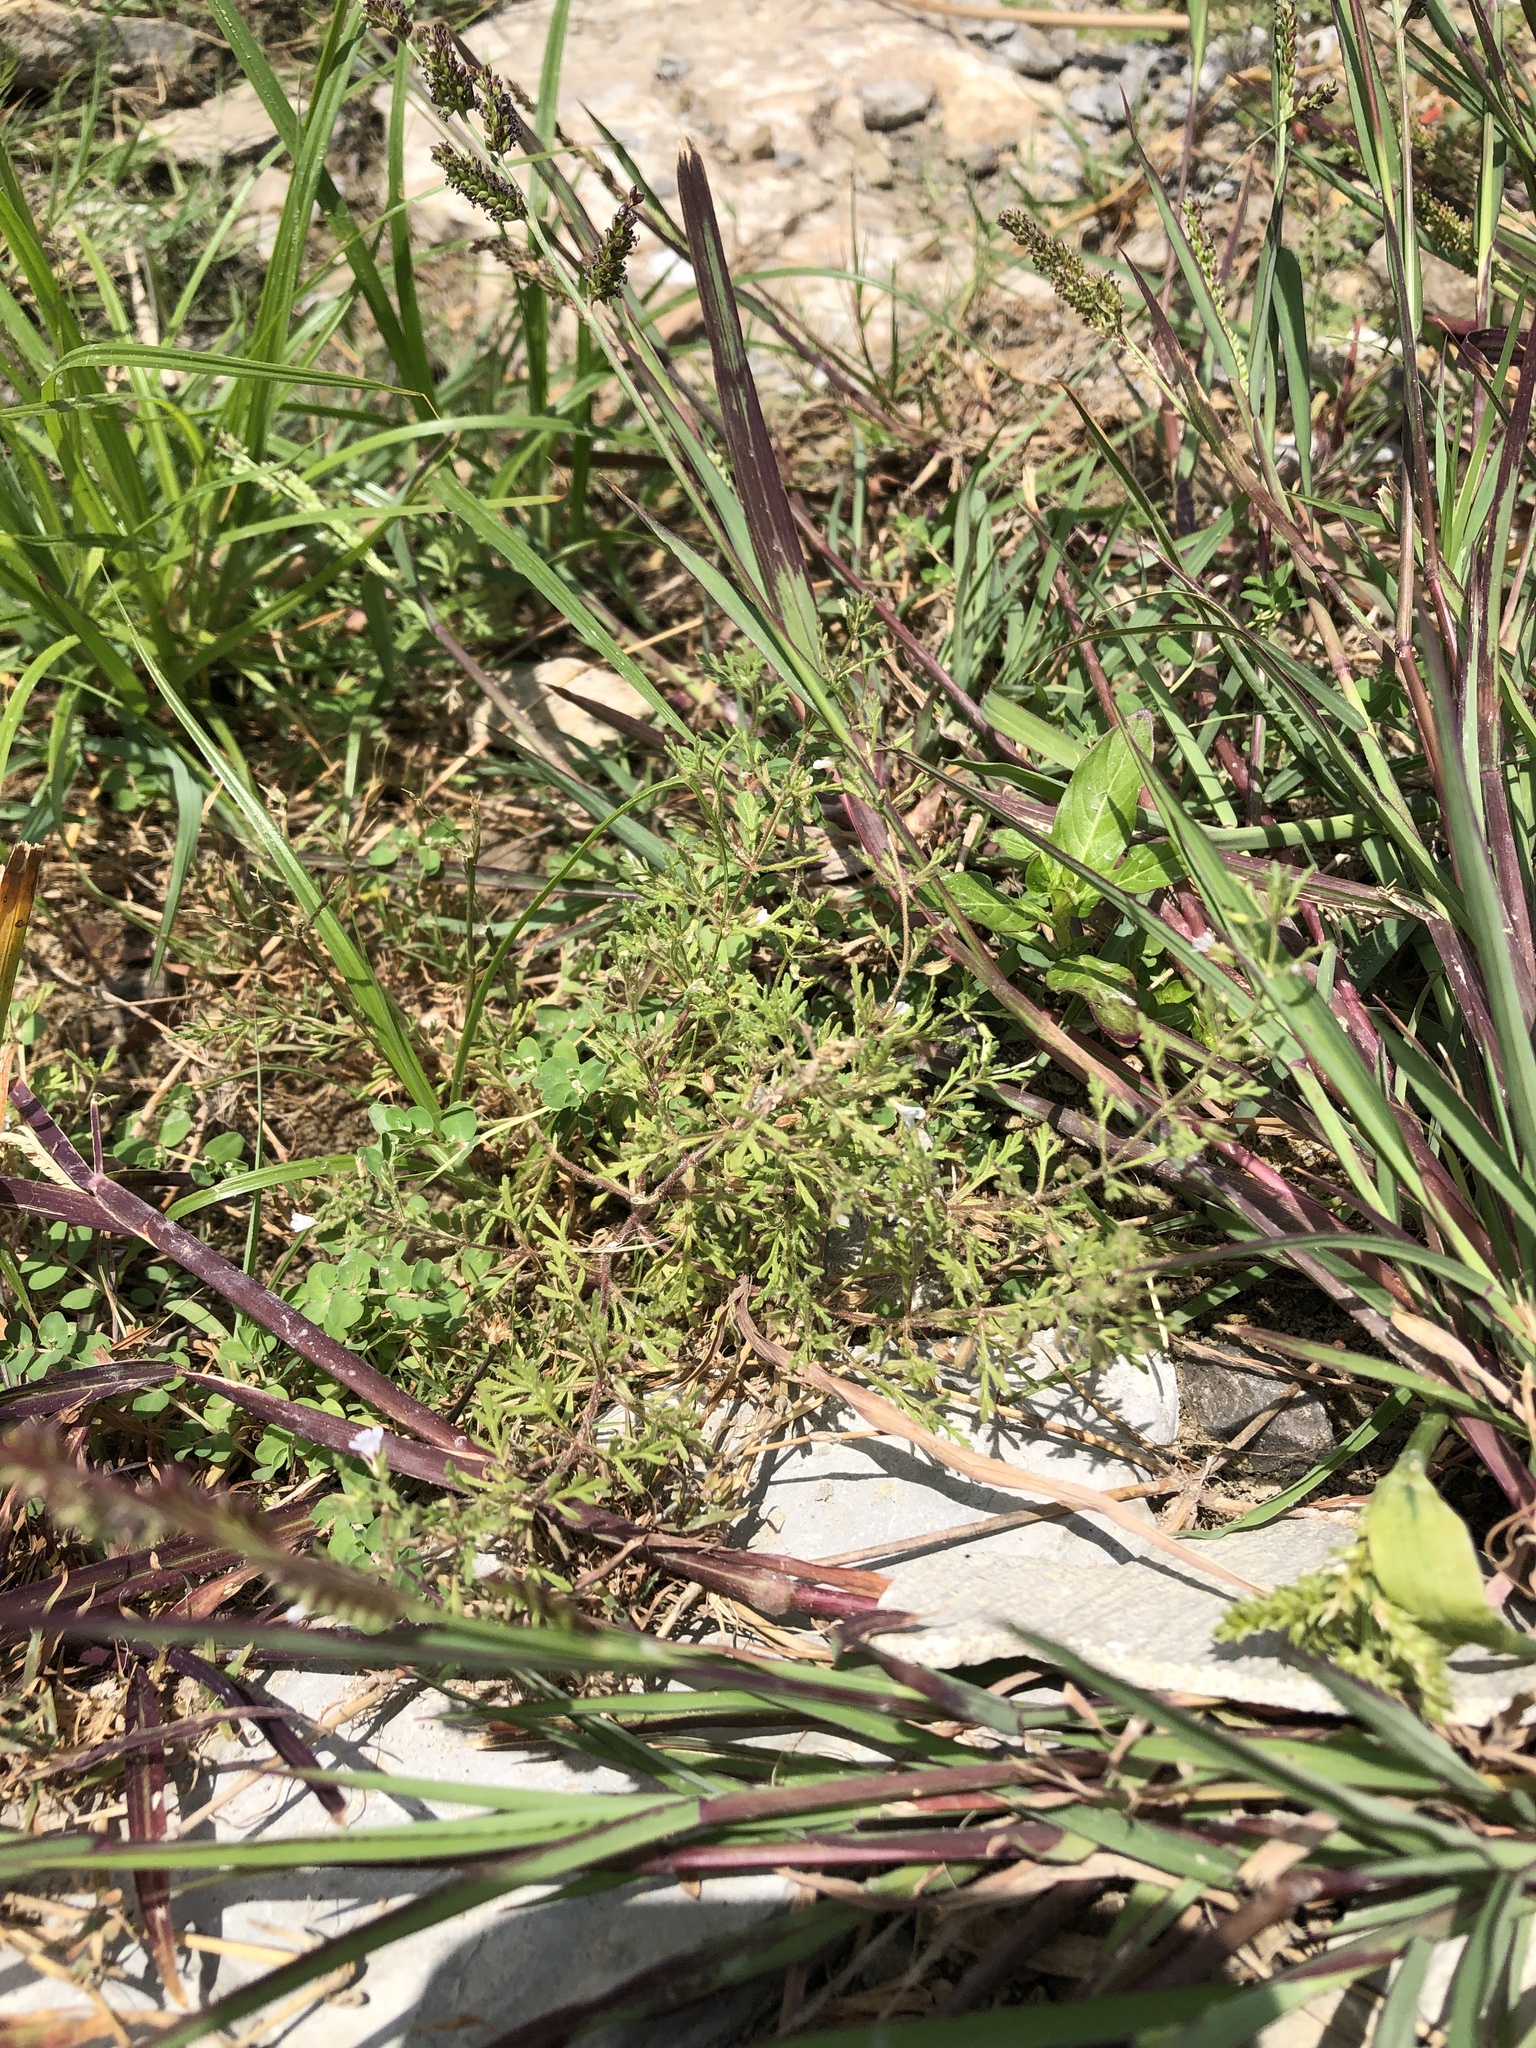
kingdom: Plantae
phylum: Tracheophyta
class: Magnoliopsida
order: Lamiales
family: Plantaginaceae
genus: Leucospora
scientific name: Leucospora multifida
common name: Narrow-leaf paleseed
